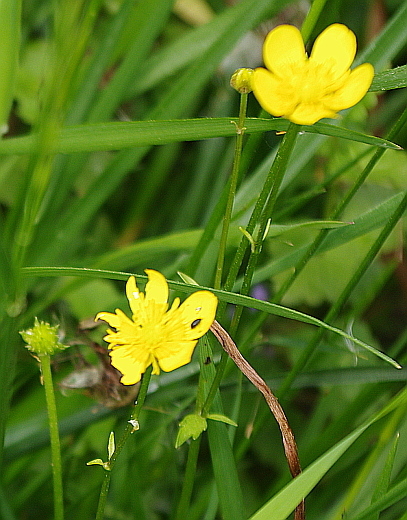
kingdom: Plantae
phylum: Tracheophyta
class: Magnoliopsida
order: Ranunculales
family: Ranunculaceae
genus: Ranunculus
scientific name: Ranunculus repens
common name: Creeping buttercup
